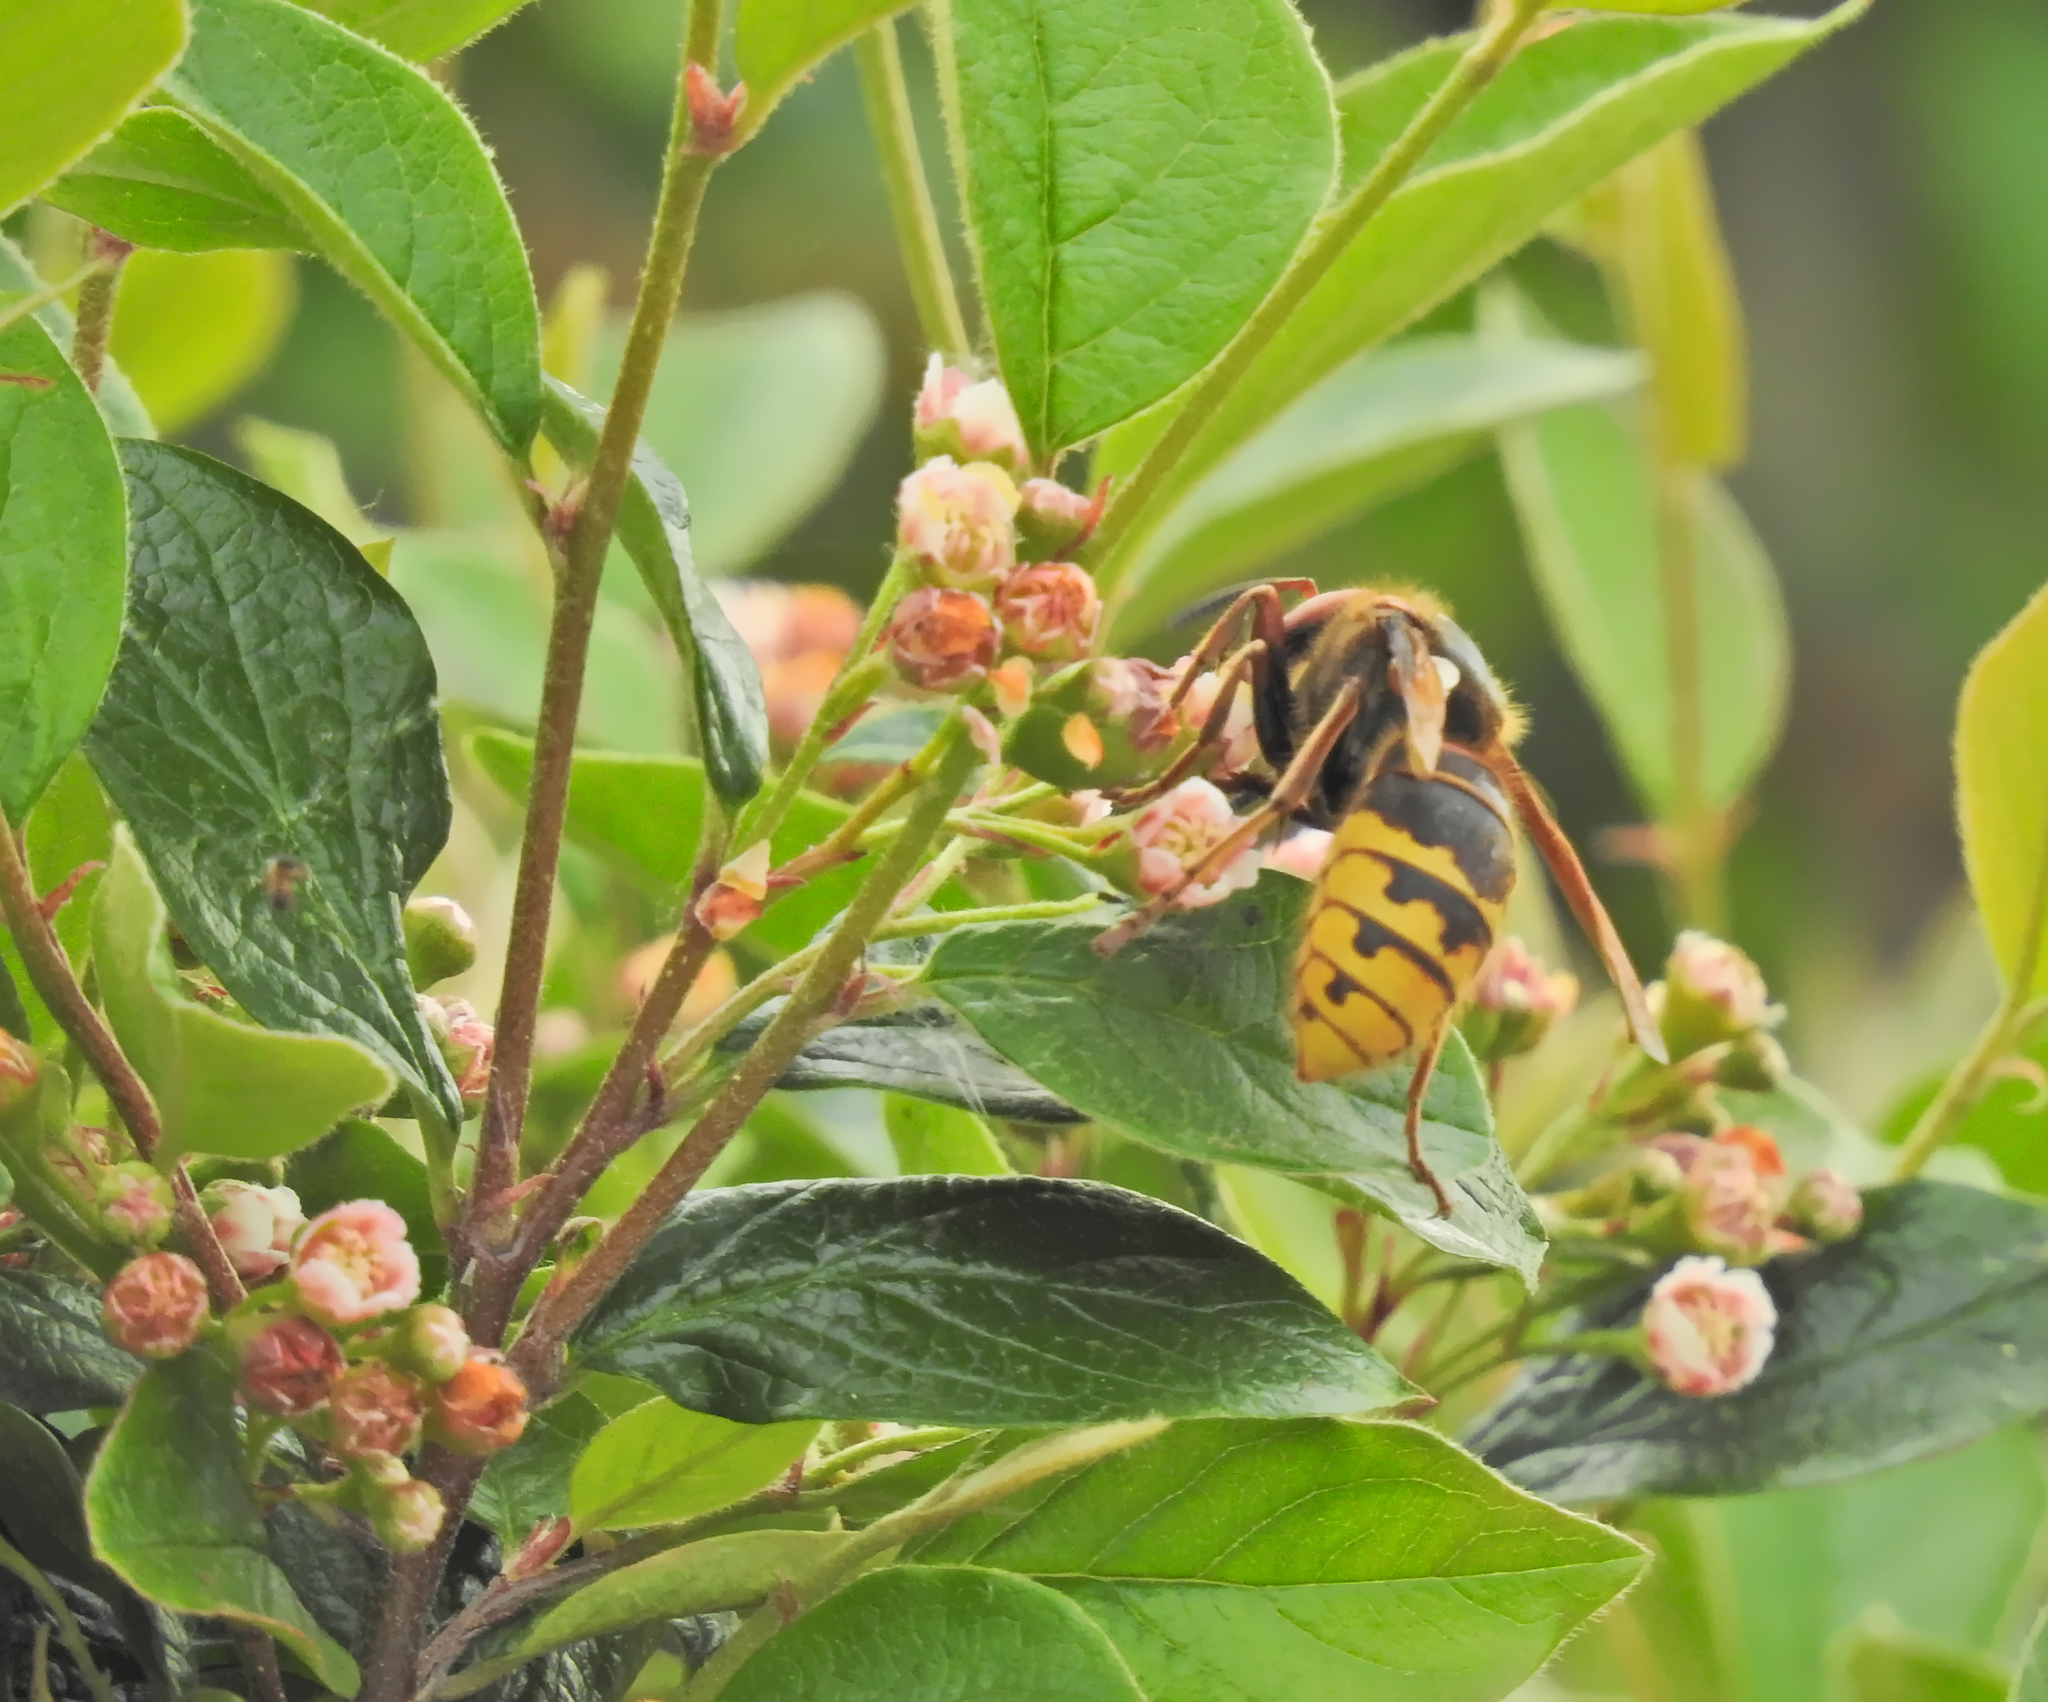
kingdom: Animalia
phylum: Arthropoda
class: Insecta
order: Hymenoptera
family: Vespidae
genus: Vespa
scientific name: Vespa crabro
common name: Hornet
